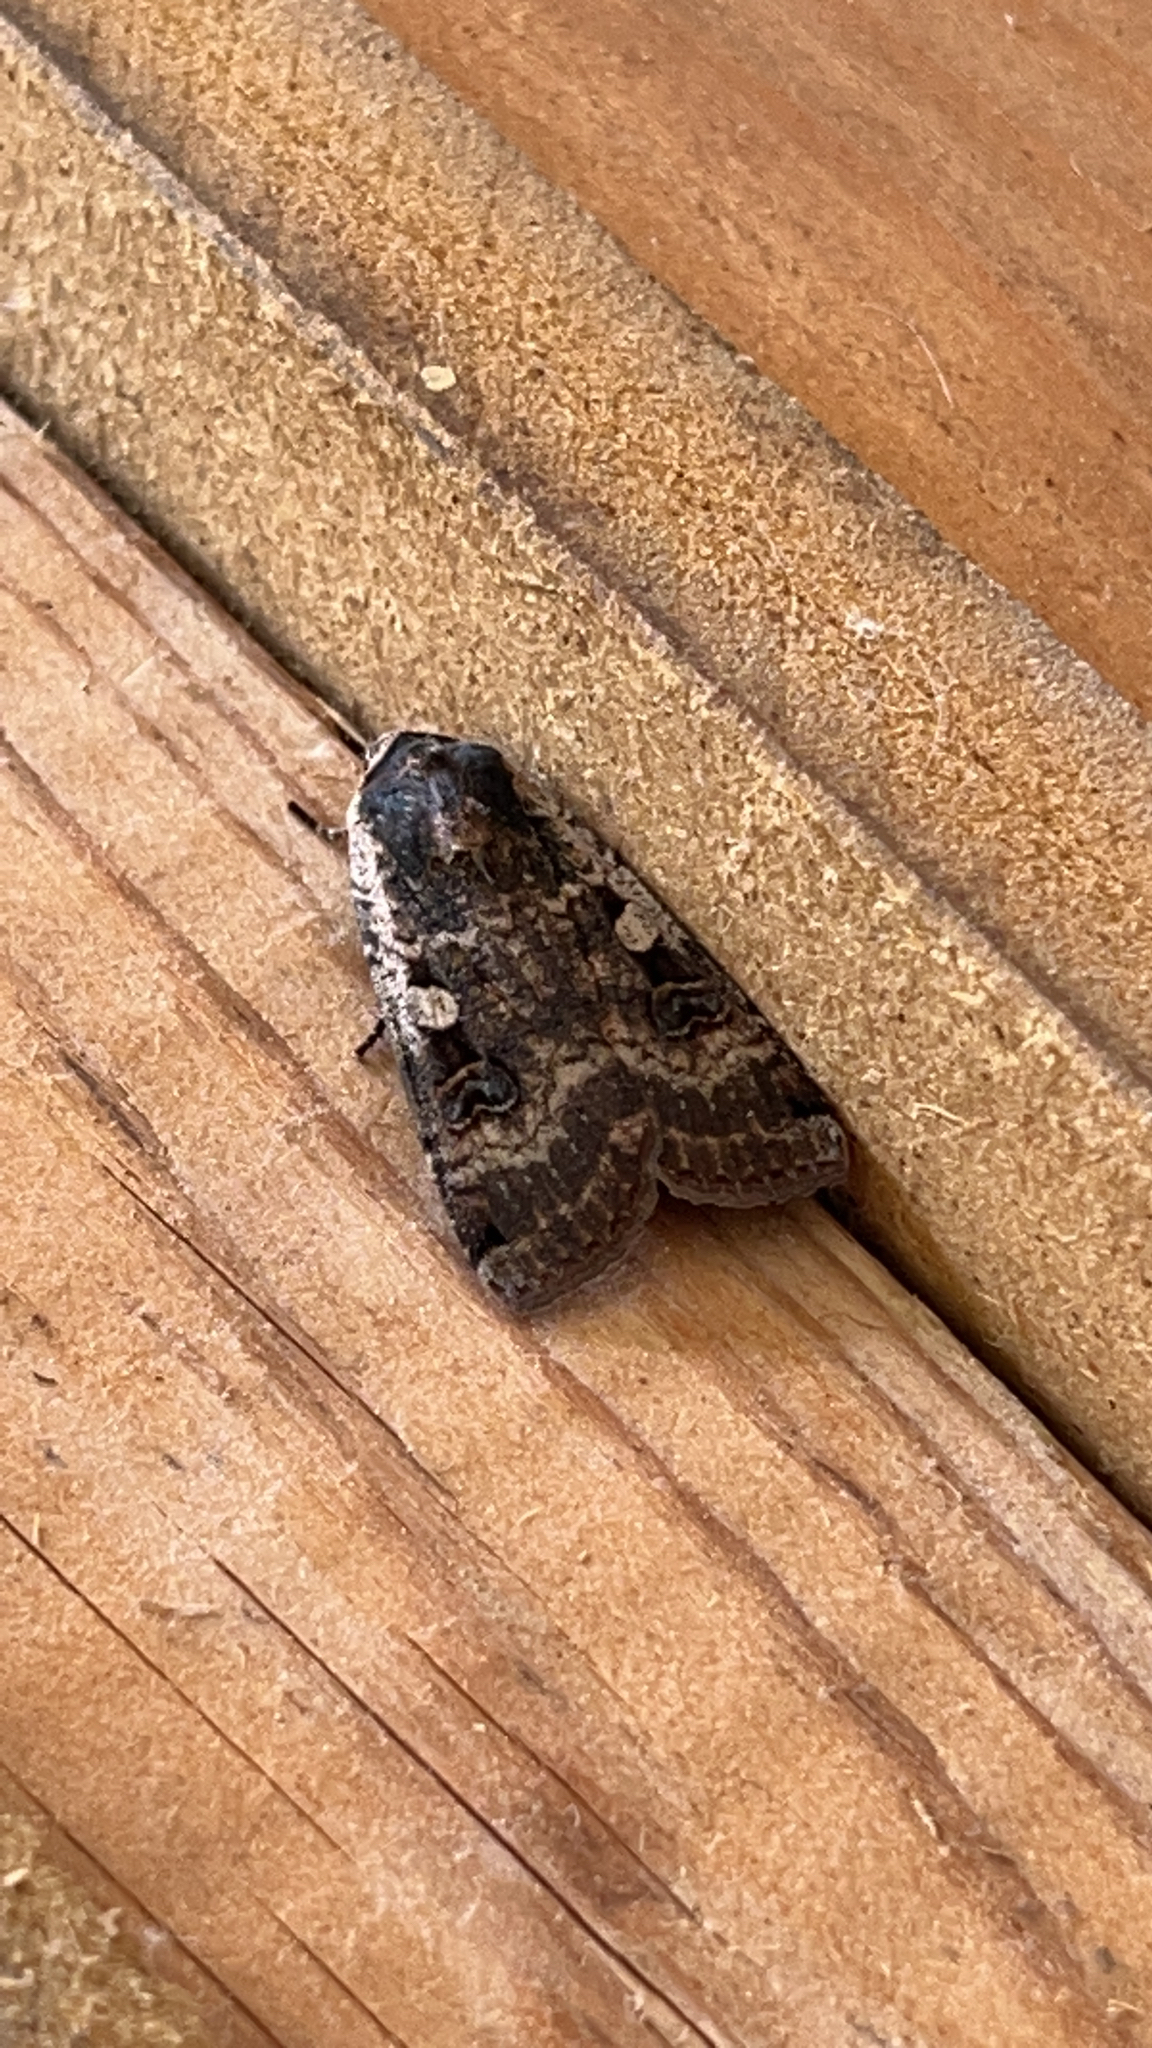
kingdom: Animalia
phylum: Arthropoda
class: Insecta
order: Lepidoptera
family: Noctuidae
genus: Noctua
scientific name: Noctua pronuba
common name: Large yellow underwing
